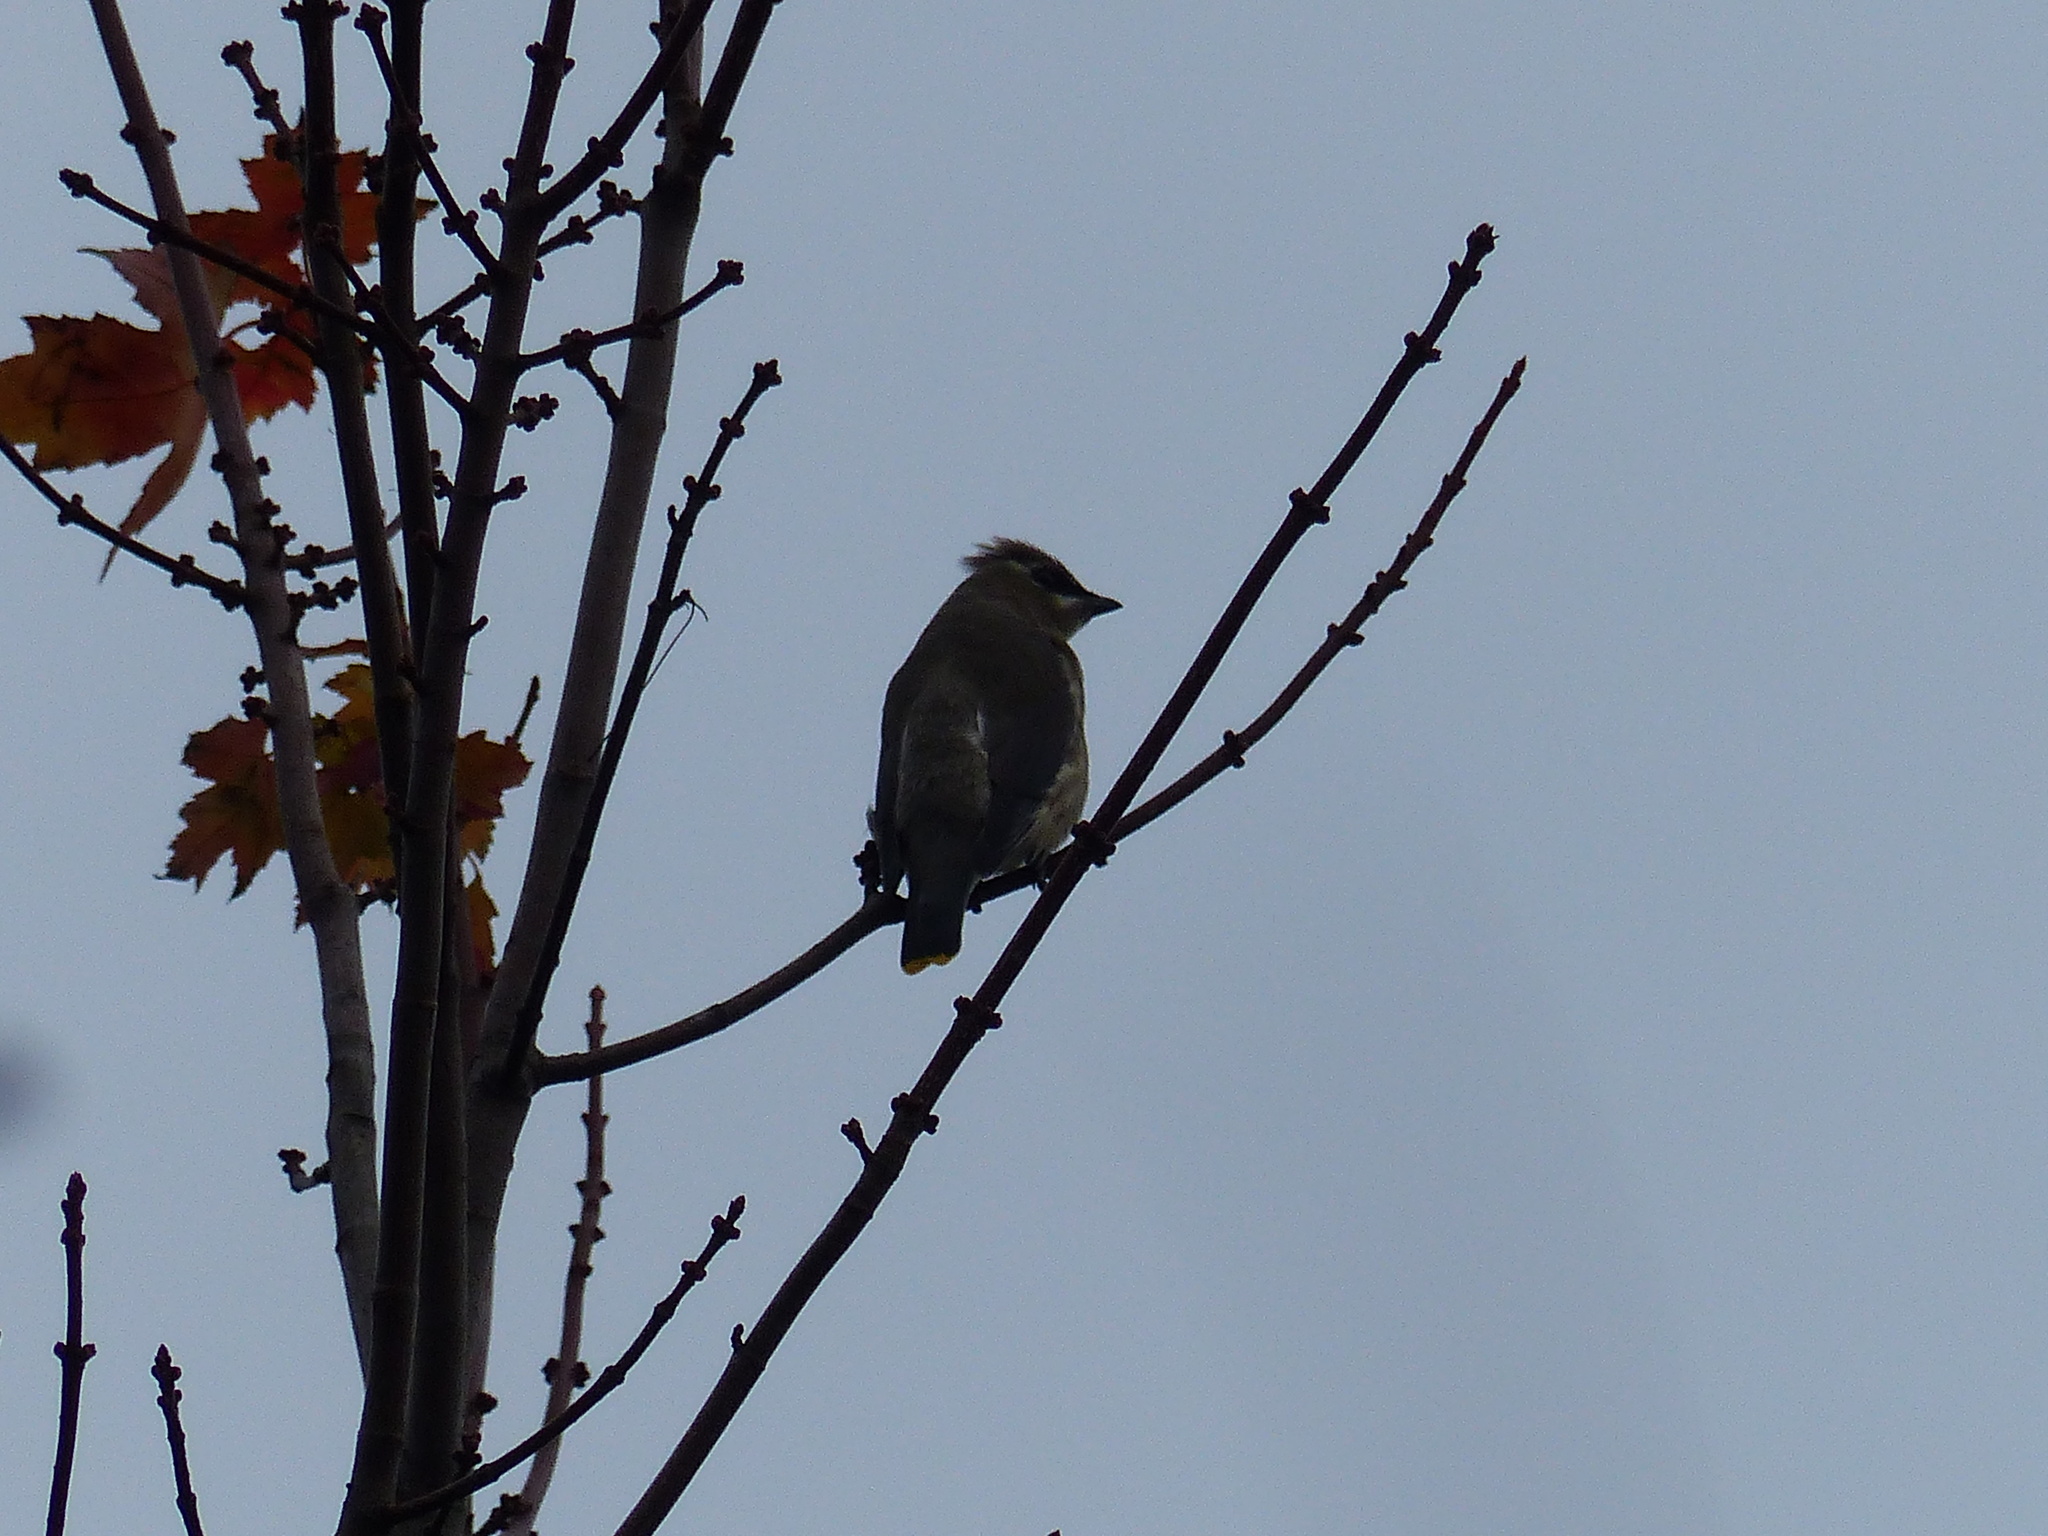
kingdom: Animalia
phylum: Chordata
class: Aves
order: Passeriformes
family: Bombycillidae
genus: Bombycilla
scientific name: Bombycilla cedrorum
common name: Cedar waxwing
